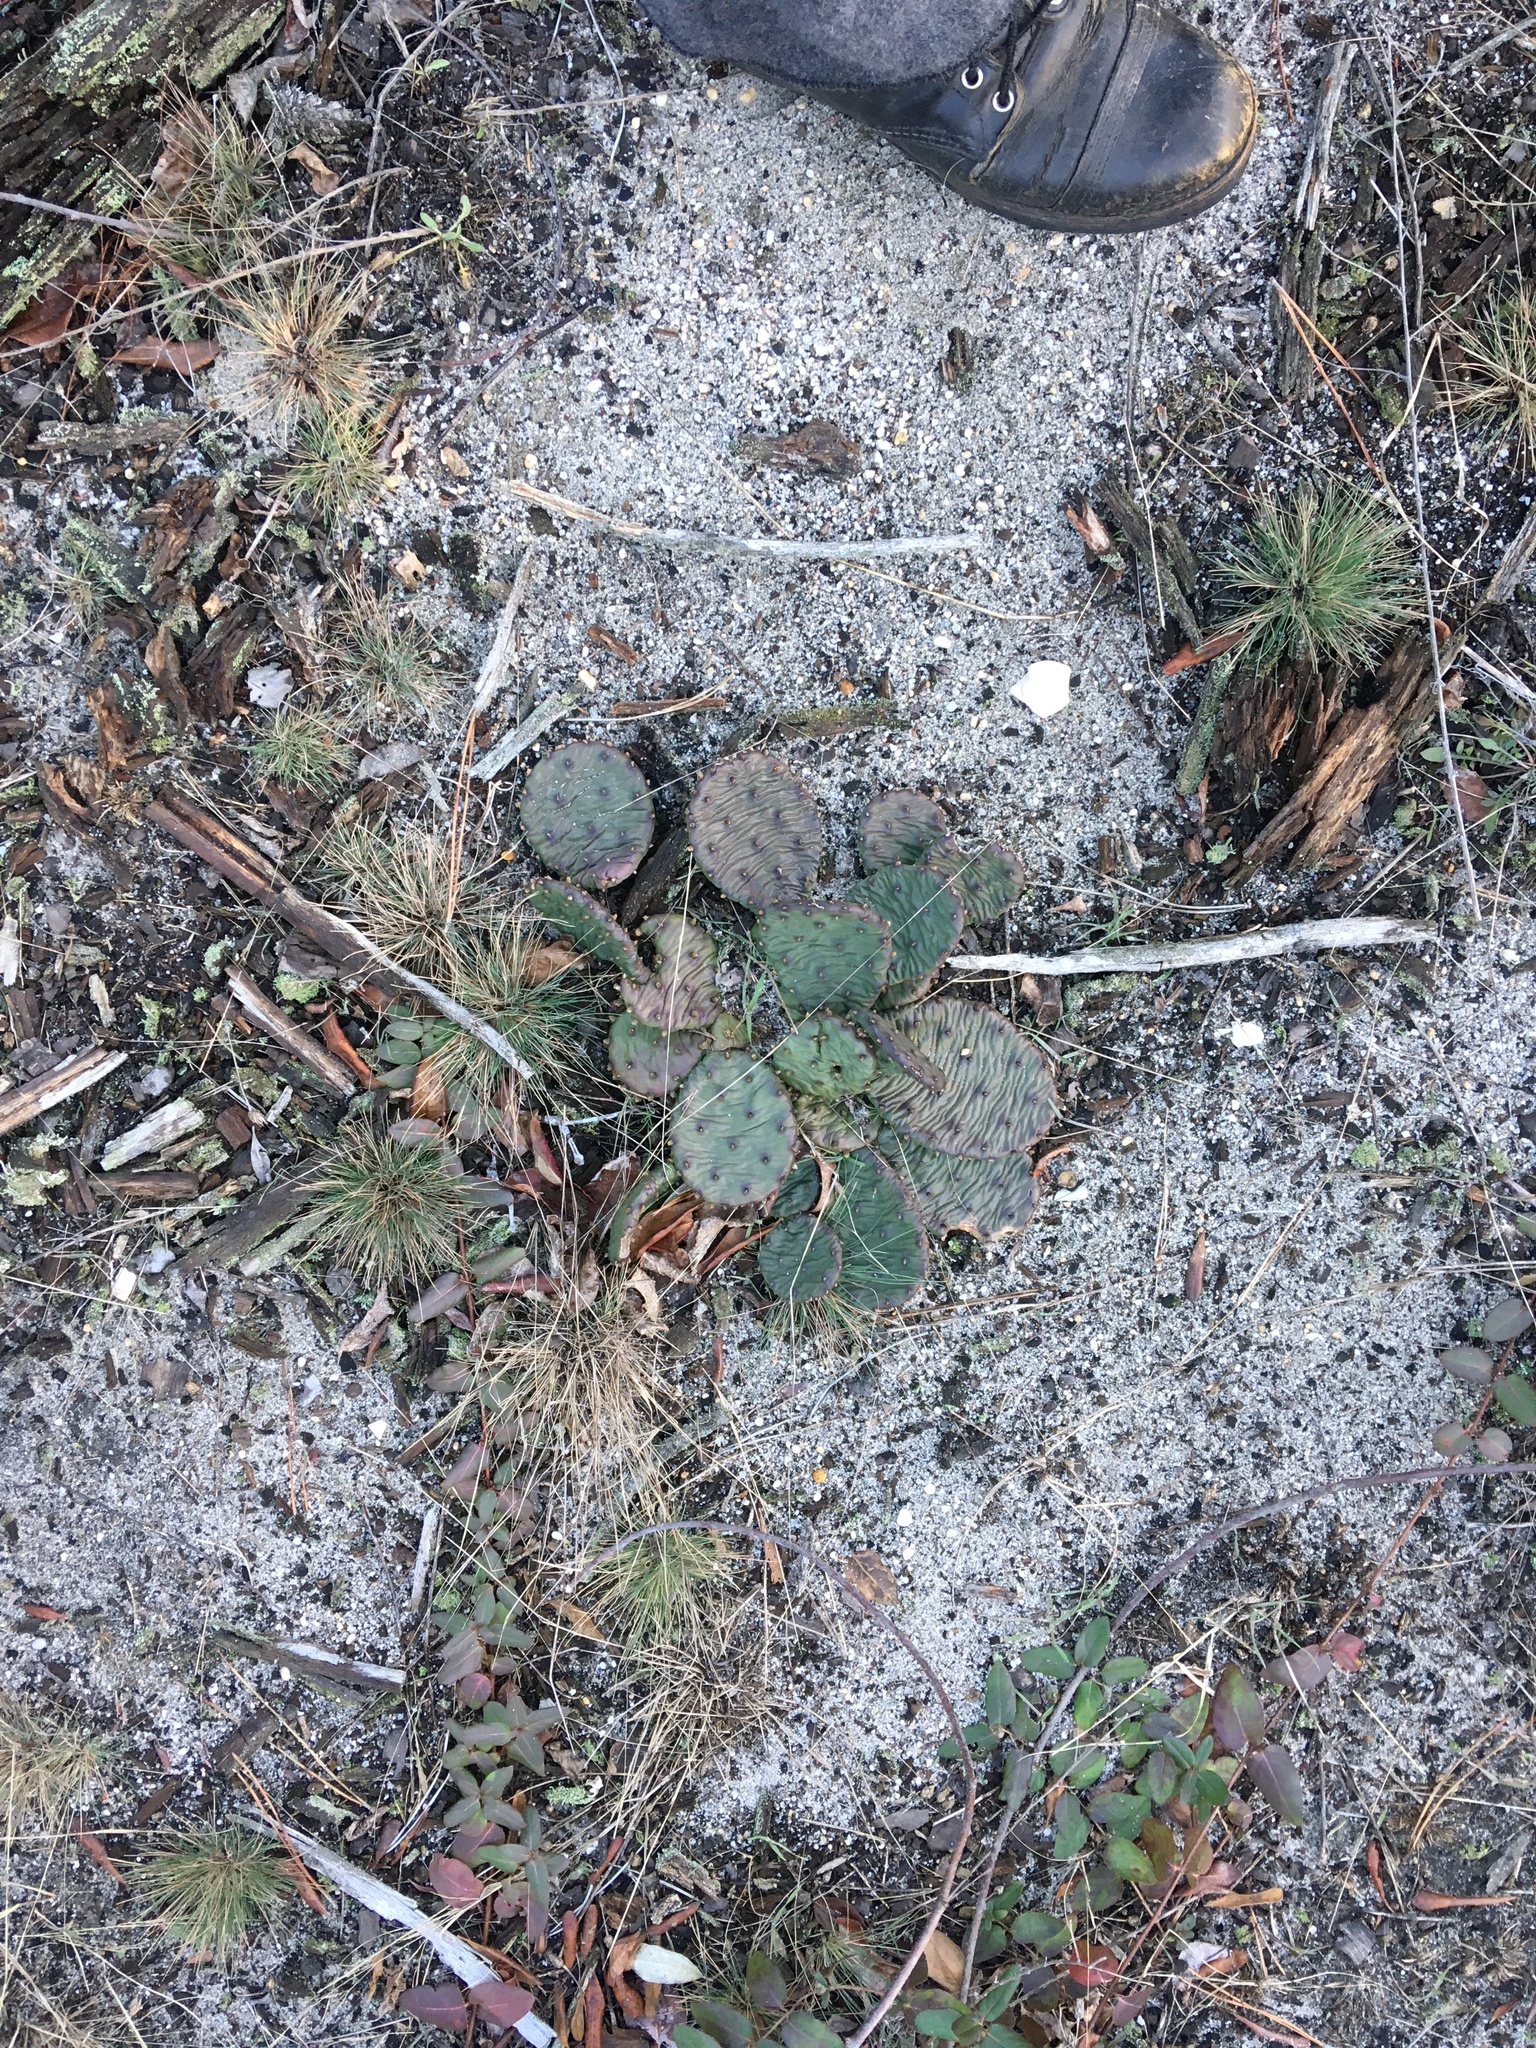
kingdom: Plantae
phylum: Tracheophyta
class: Magnoliopsida
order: Caryophyllales
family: Cactaceae
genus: Opuntia
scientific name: Opuntia humifusa
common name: Eastern prickly-pear
